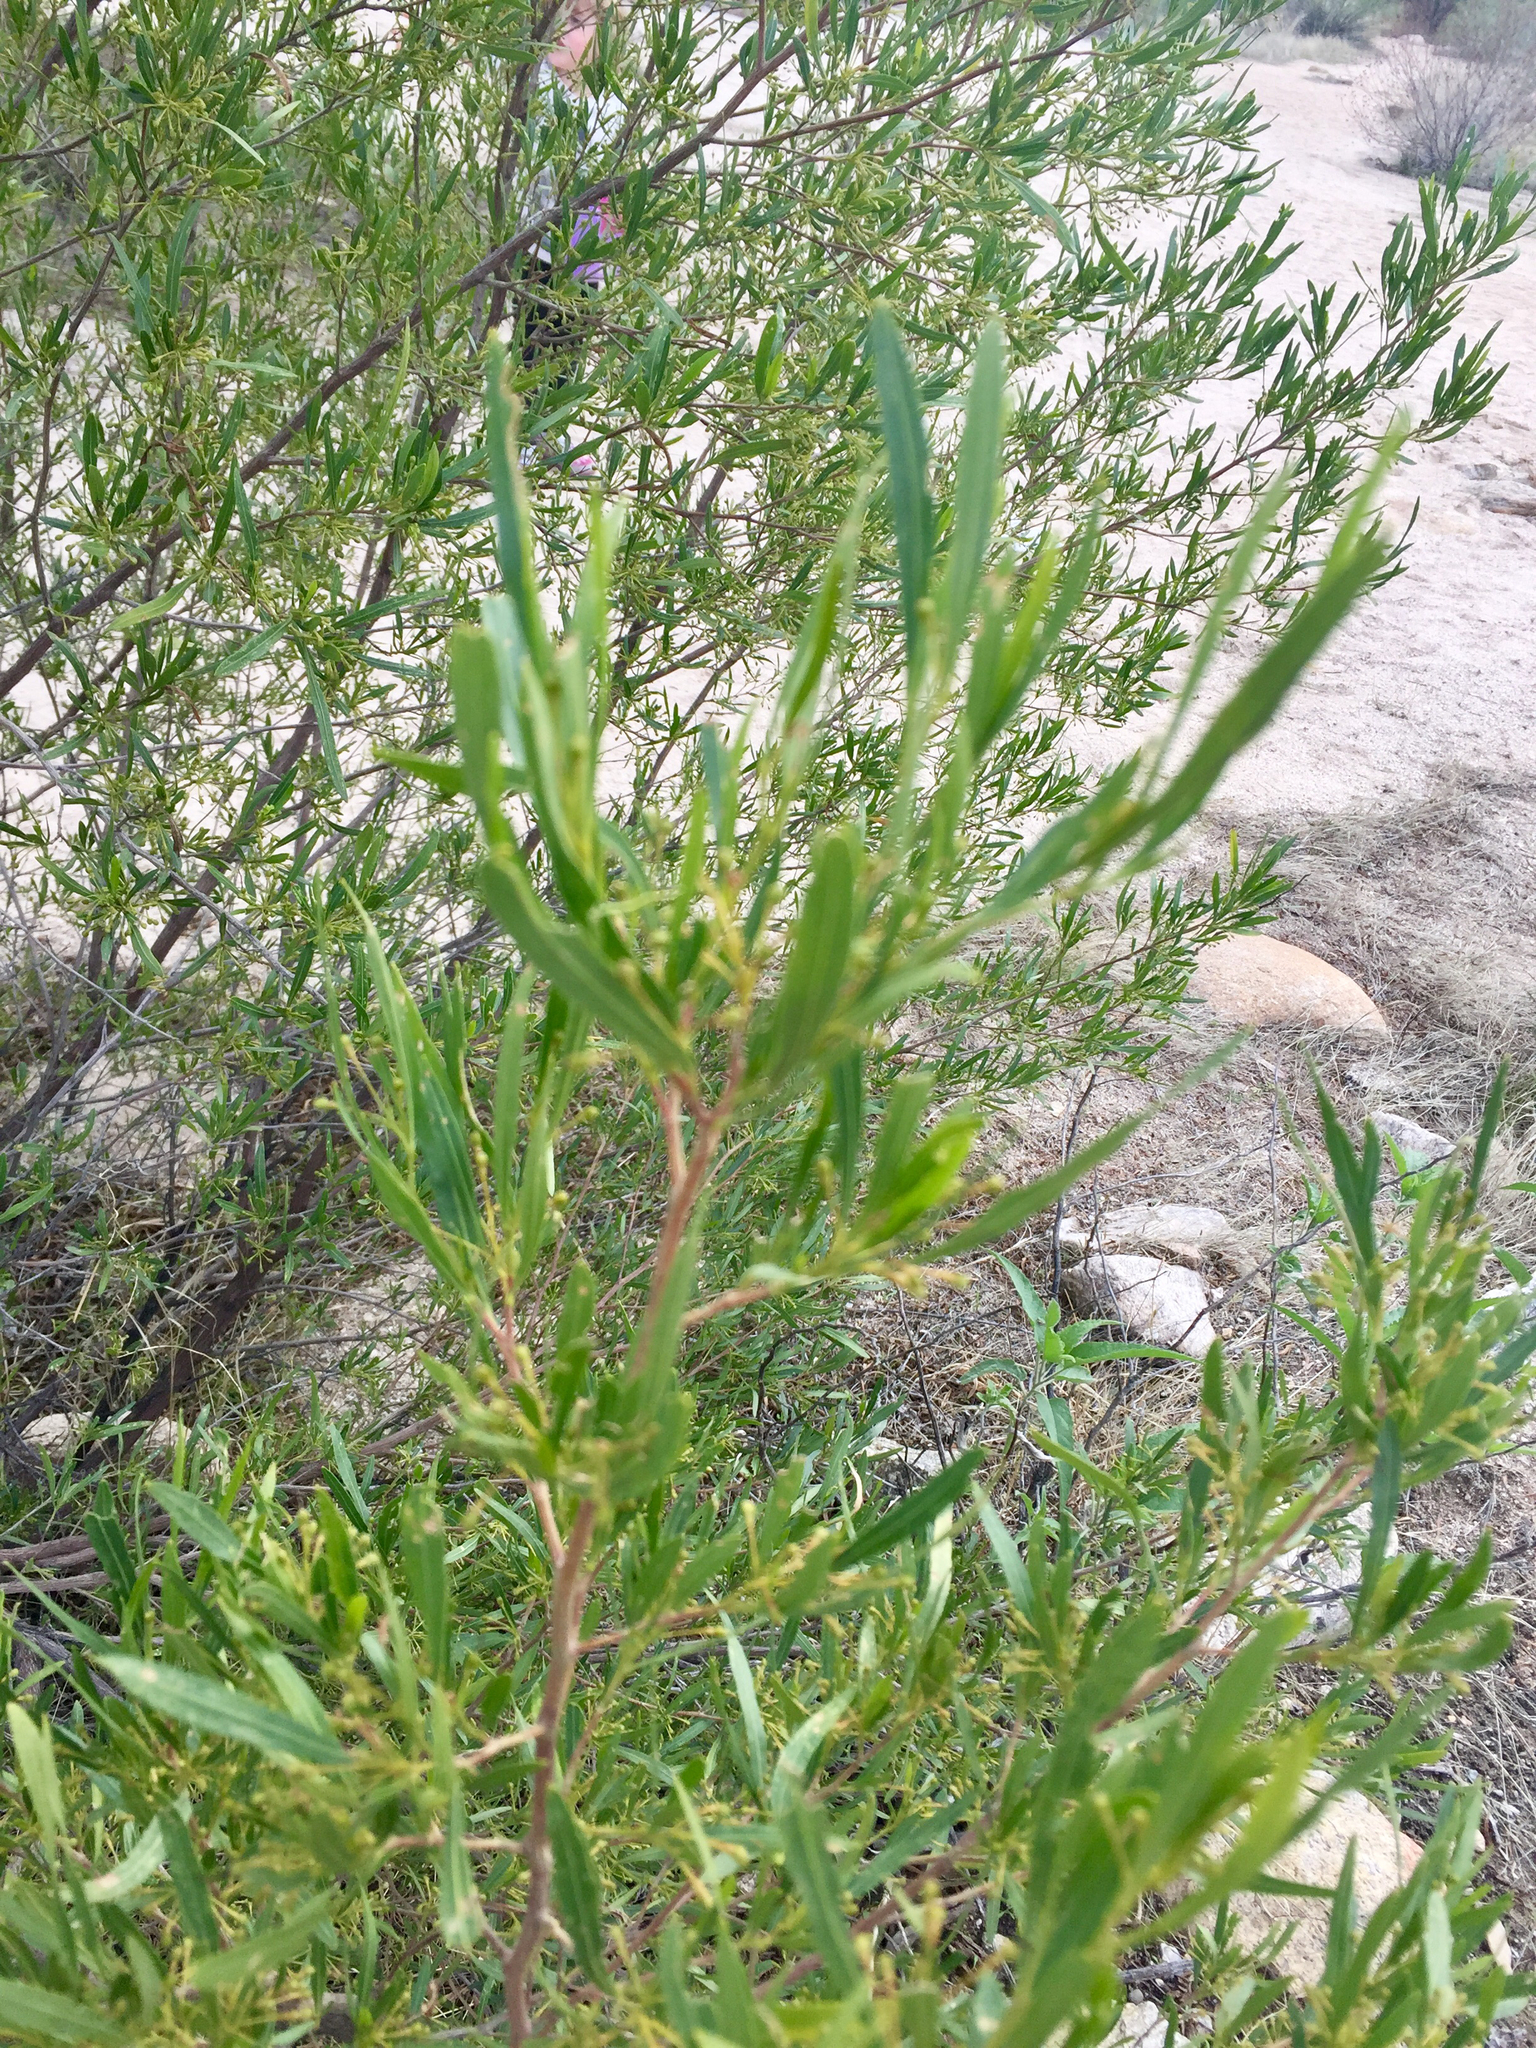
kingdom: Plantae
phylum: Tracheophyta
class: Magnoliopsida
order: Sapindales
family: Sapindaceae
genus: Dodonaea
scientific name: Dodonaea viscosa
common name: Hopbush
